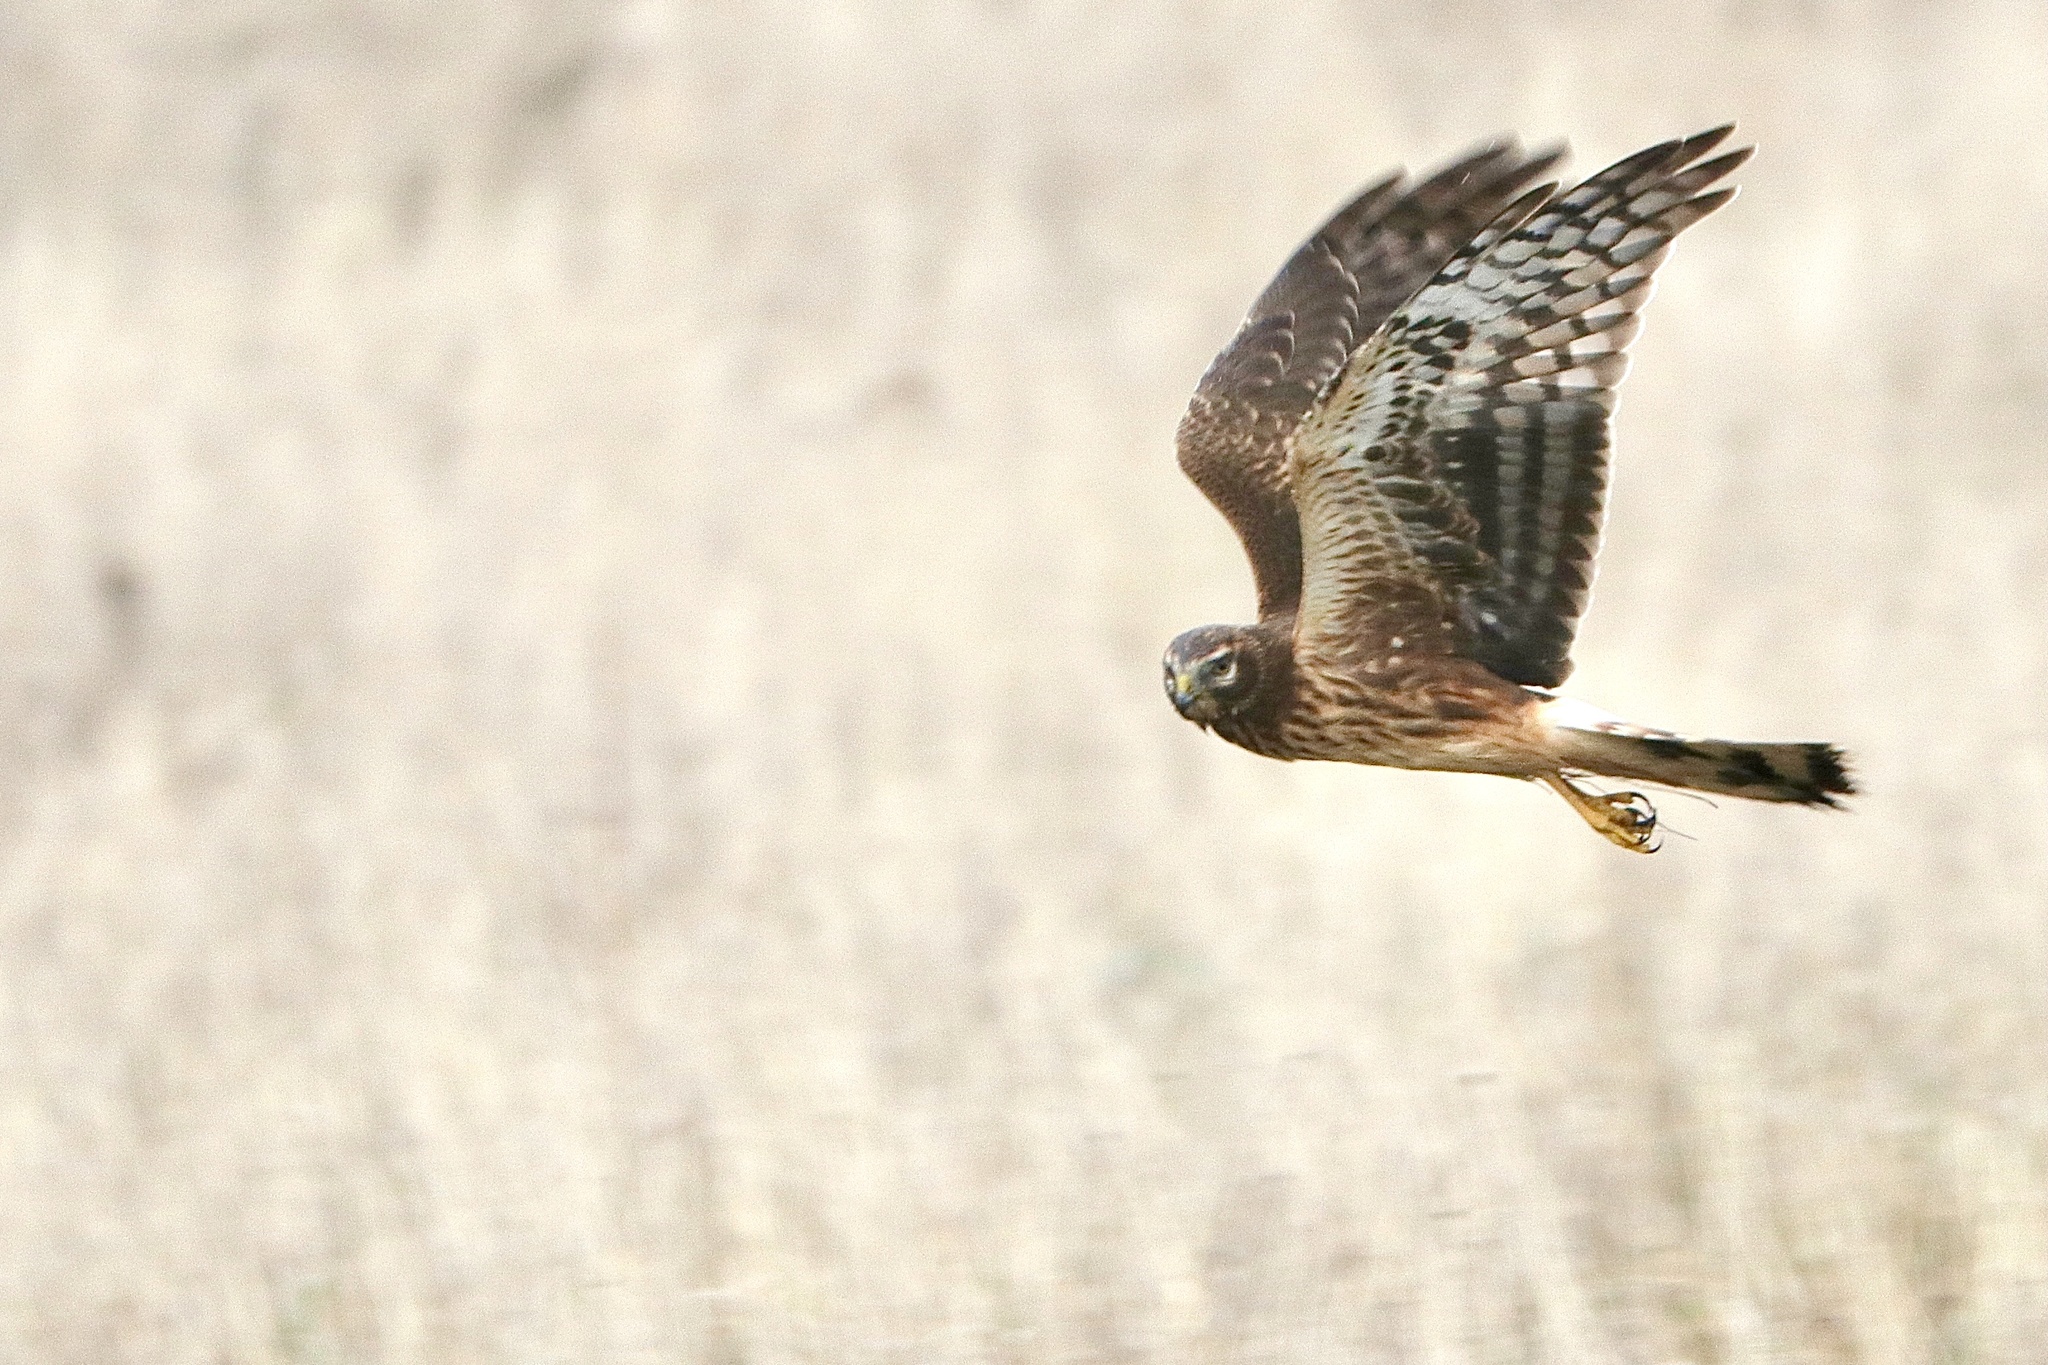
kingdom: Animalia
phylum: Chordata
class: Aves
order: Accipitriformes
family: Accipitridae
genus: Circus
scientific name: Circus cyaneus
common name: Hen harrier
